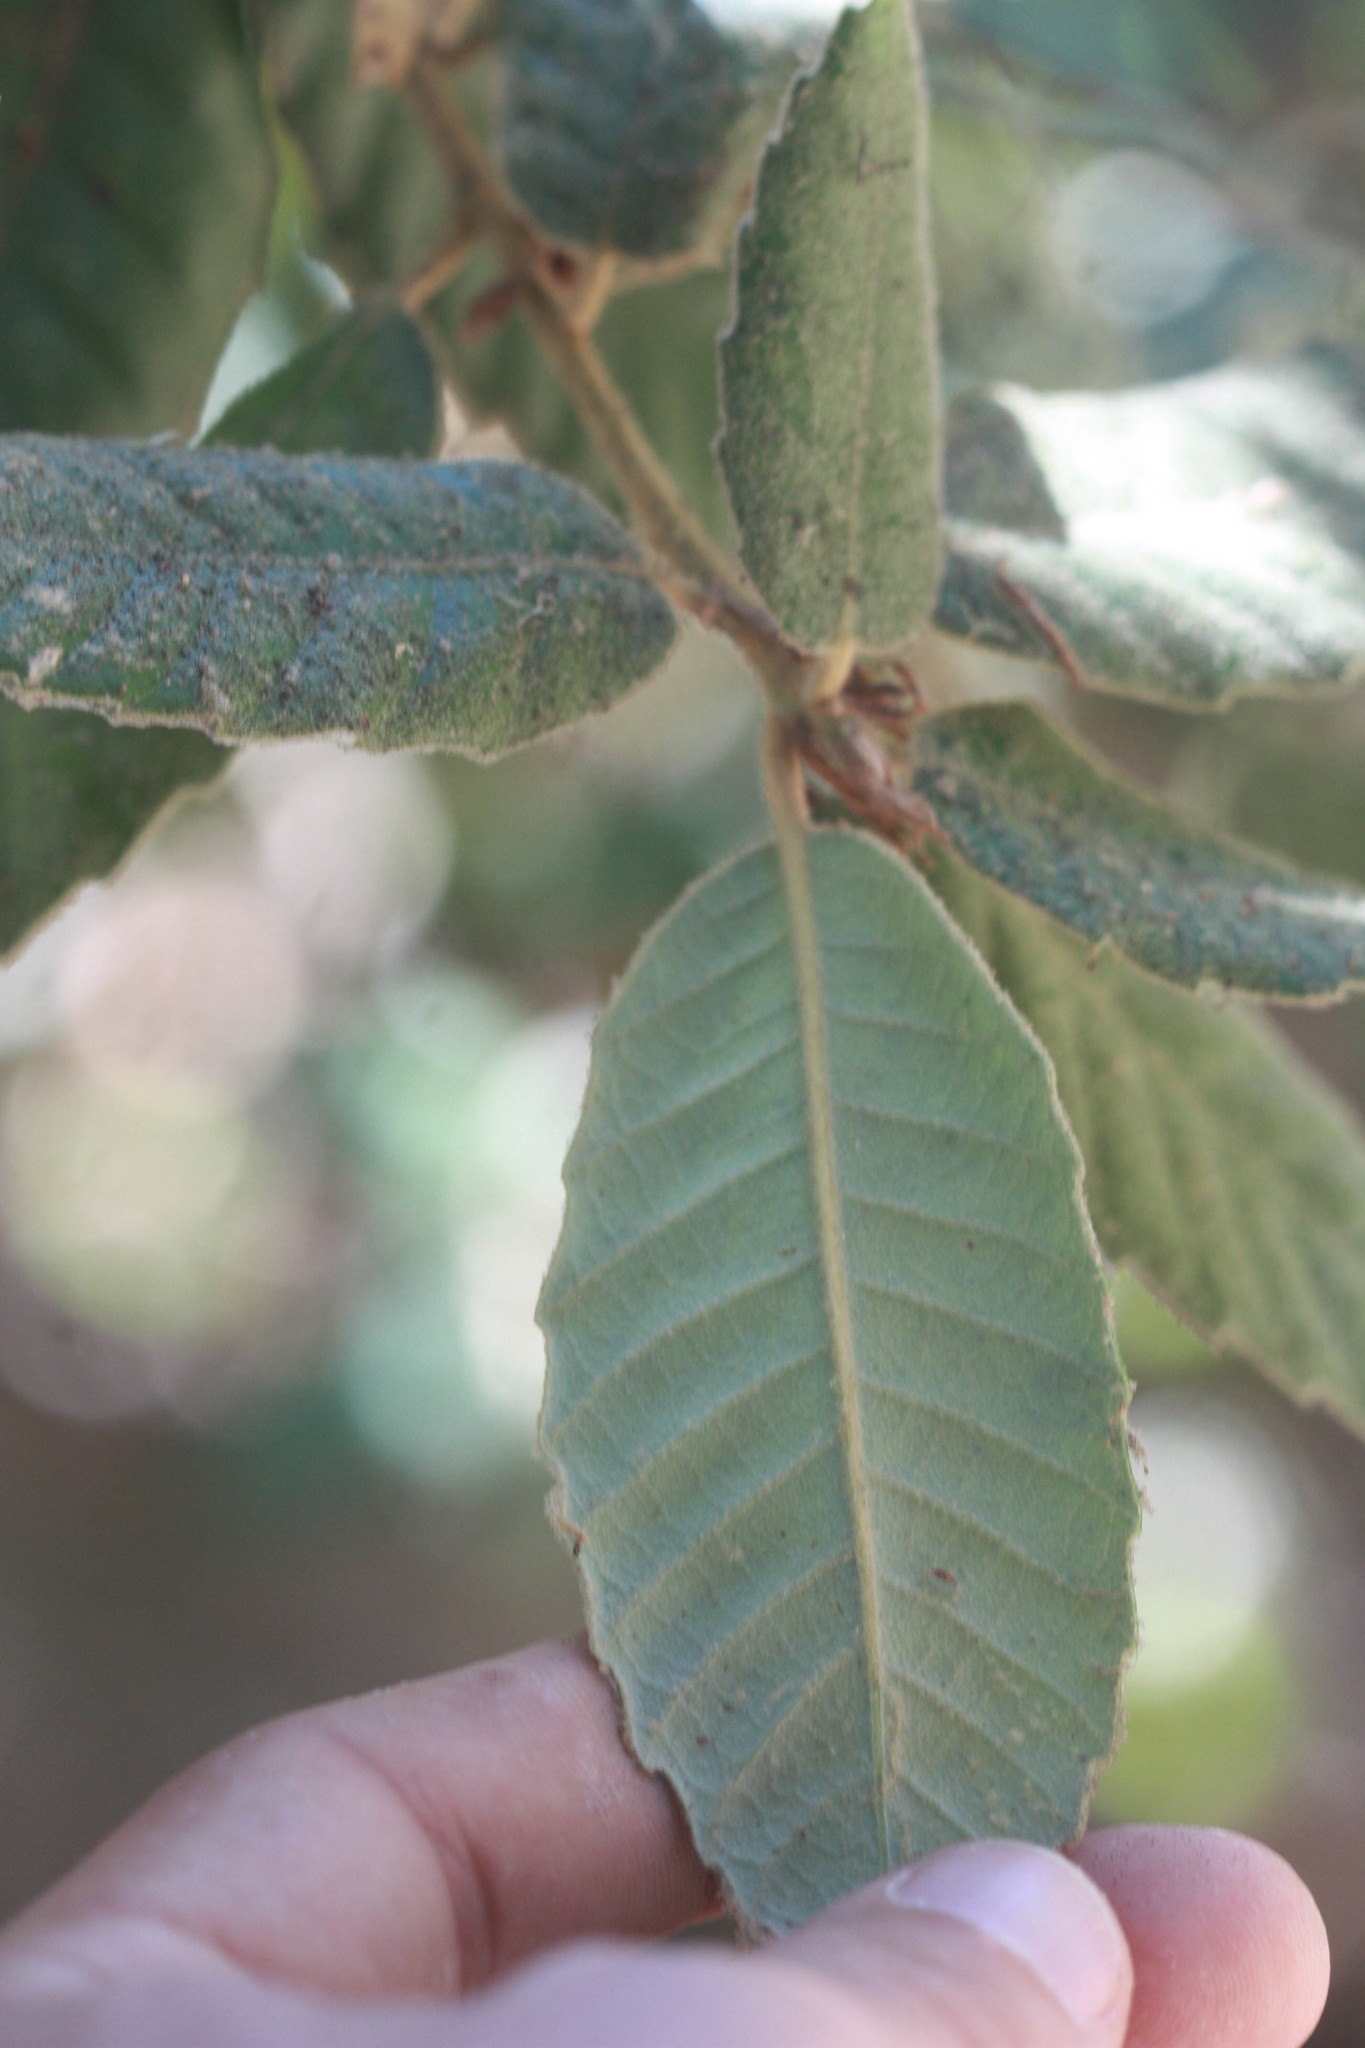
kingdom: Plantae
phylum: Tracheophyta
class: Magnoliopsida
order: Fagales
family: Fagaceae
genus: Notholithocarpus
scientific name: Notholithocarpus densiflorus
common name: Tan bark oak
